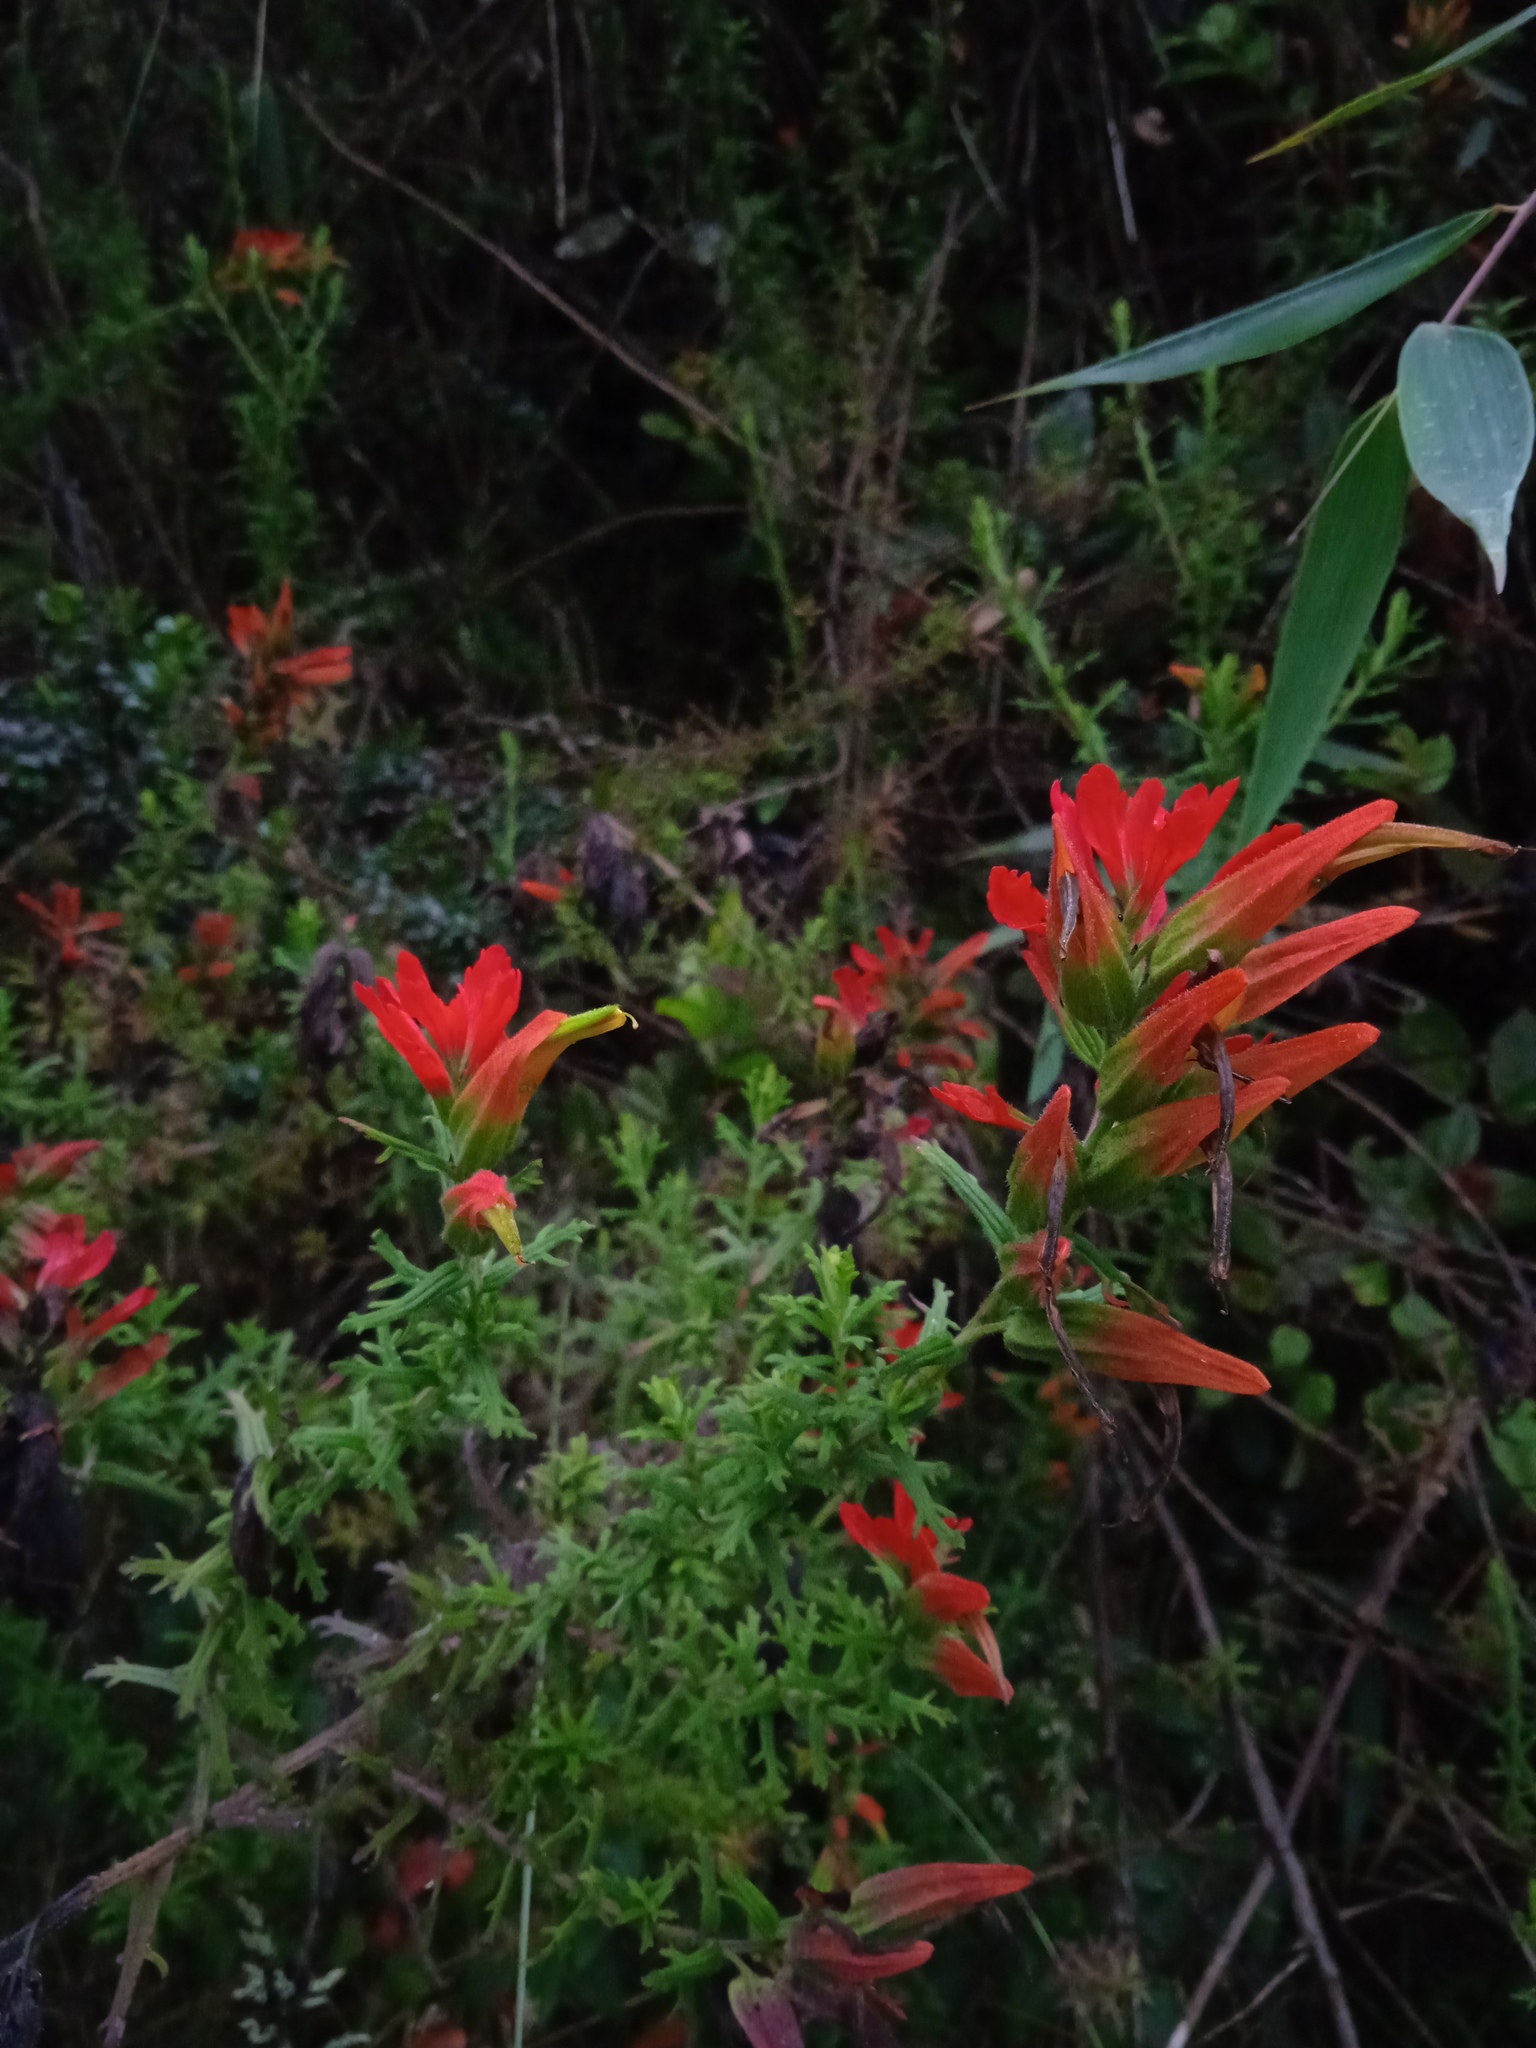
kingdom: Plantae
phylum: Tracheophyta
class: Magnoliopsida
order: Lamiales
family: Orobanchaceae
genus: Castilleja
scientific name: Castilleja fissifolia
